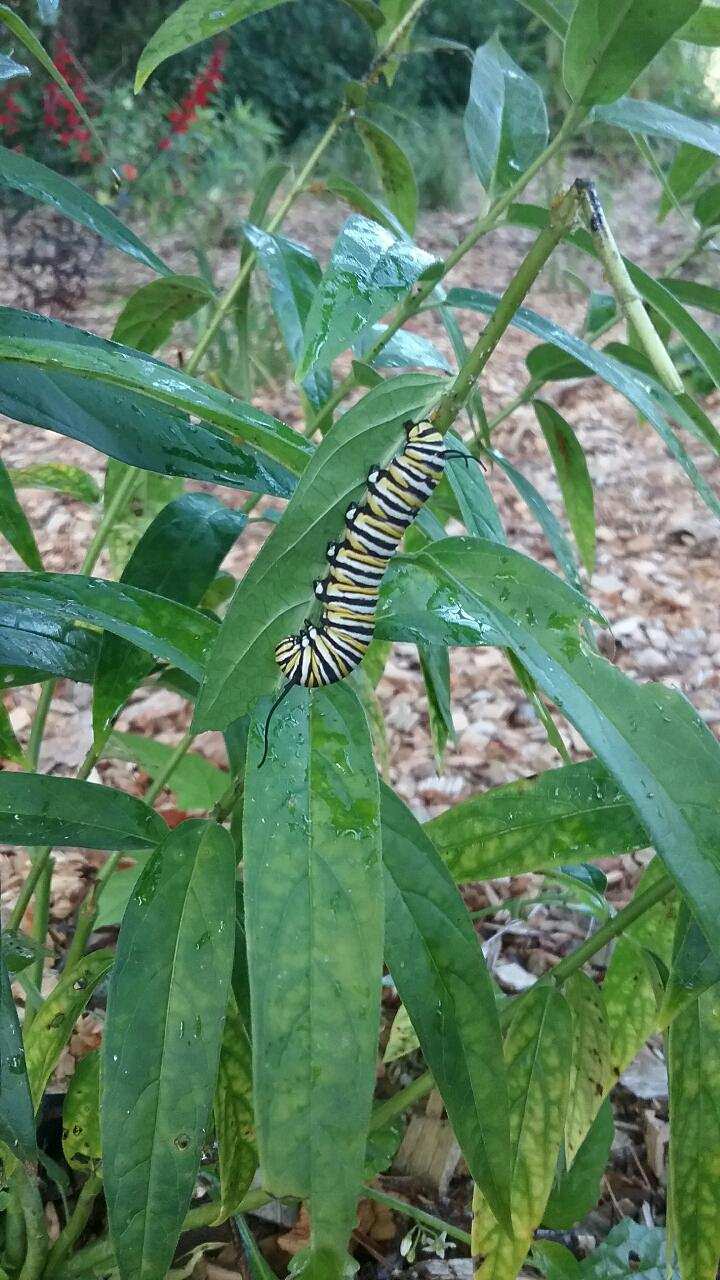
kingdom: Animalia
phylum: Arthropoda
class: Insecta
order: Lepidoptera
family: Nymphalidae
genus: Danaus
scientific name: Danaus plexippus
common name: Monarch
